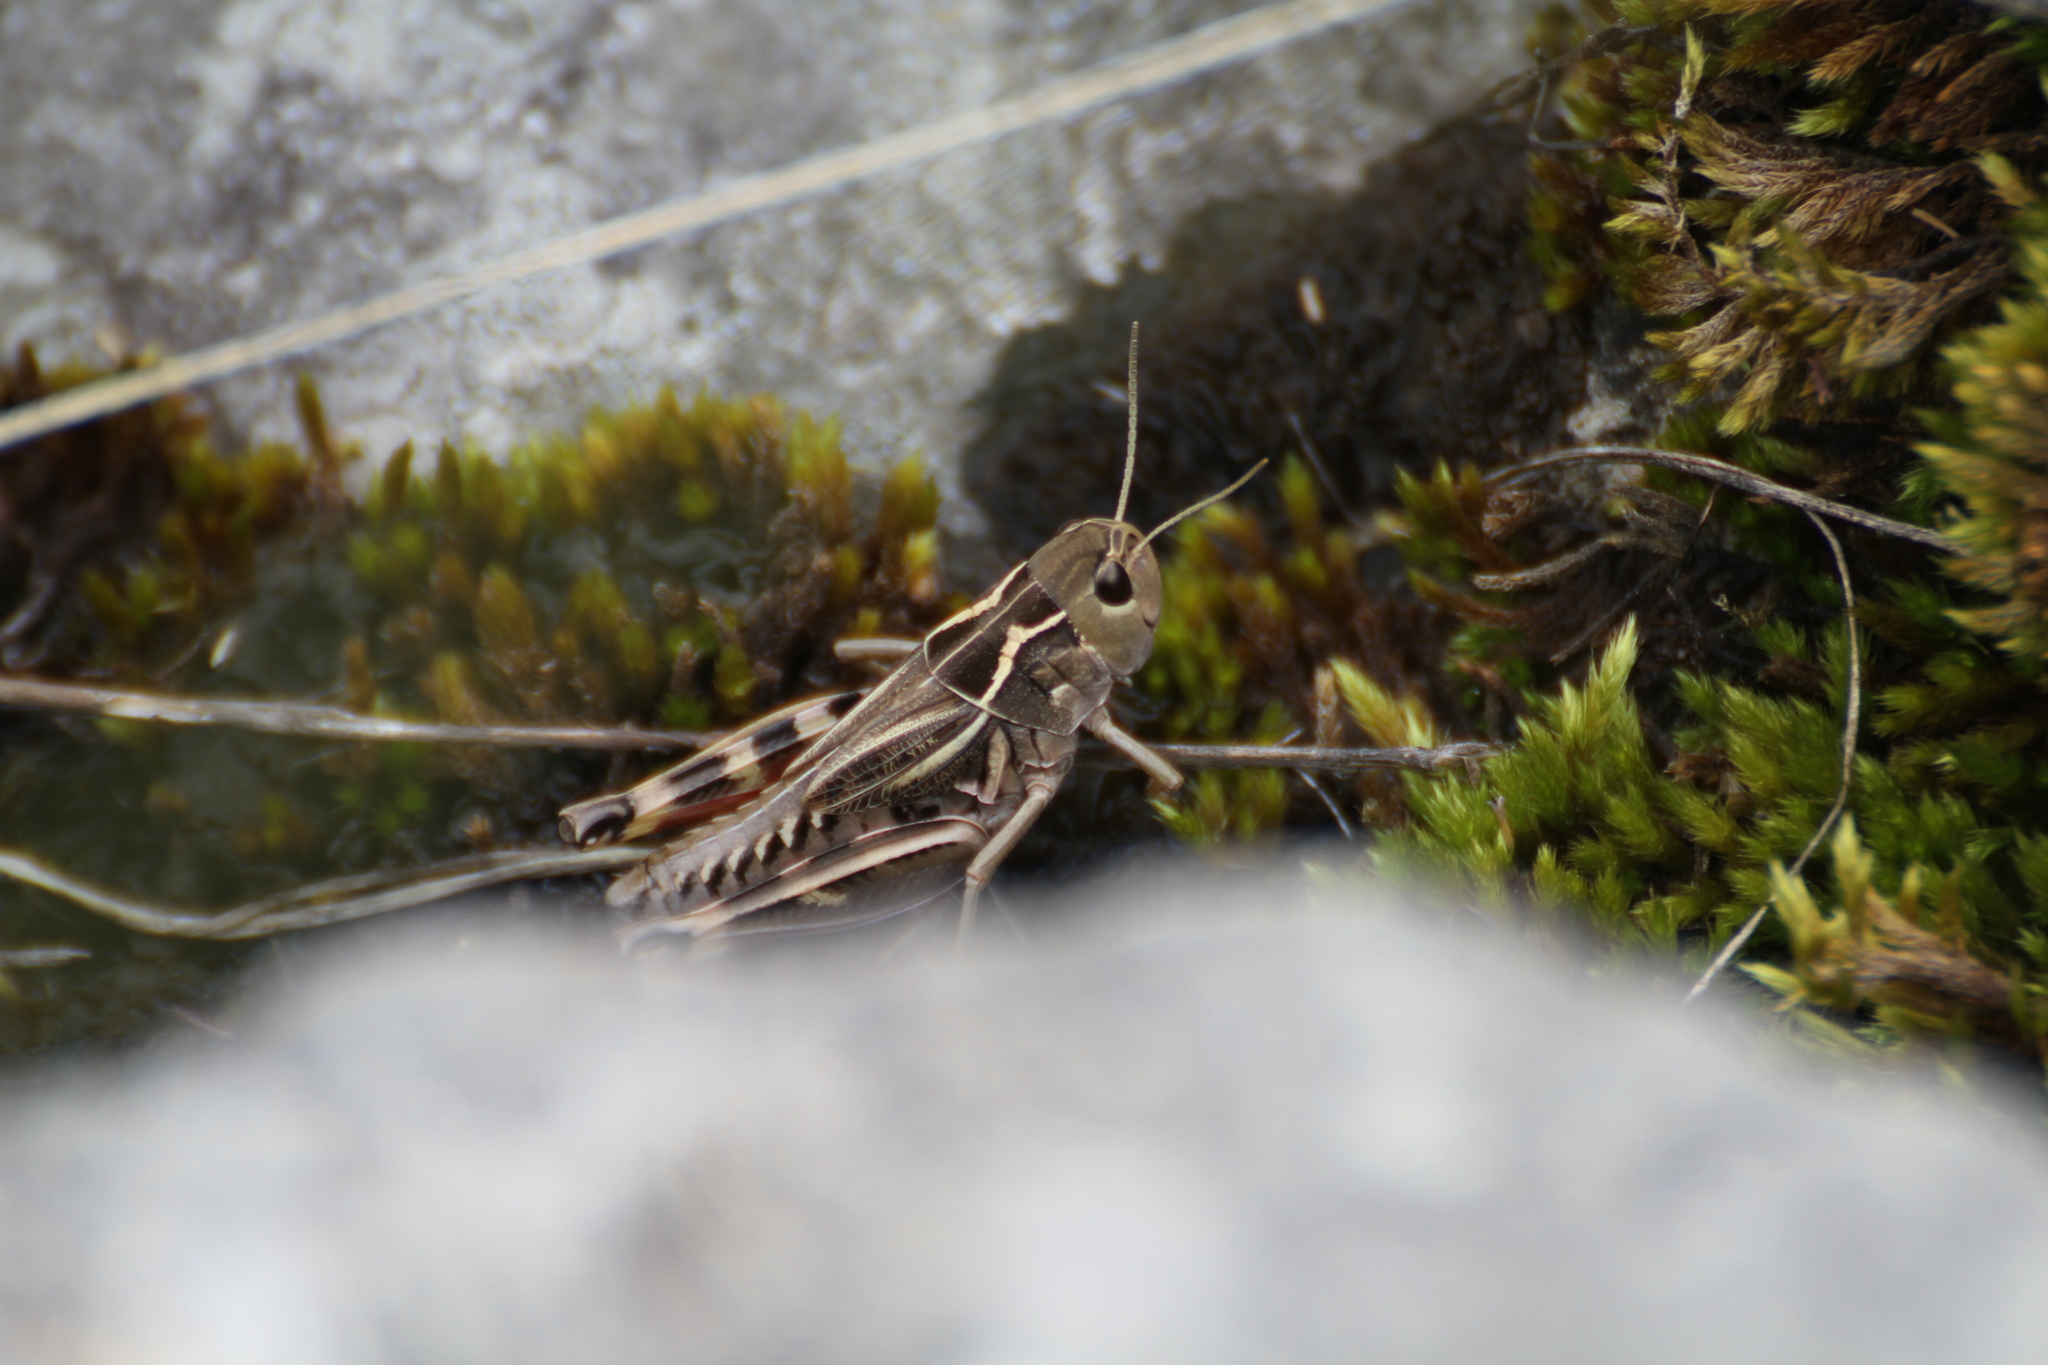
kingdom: Animalia
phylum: Arthropoda
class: Insecta
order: Orthoptera
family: Acrididae
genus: Arcyptera
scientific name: Arcyptera kheili
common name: Provence banded grasshopper
